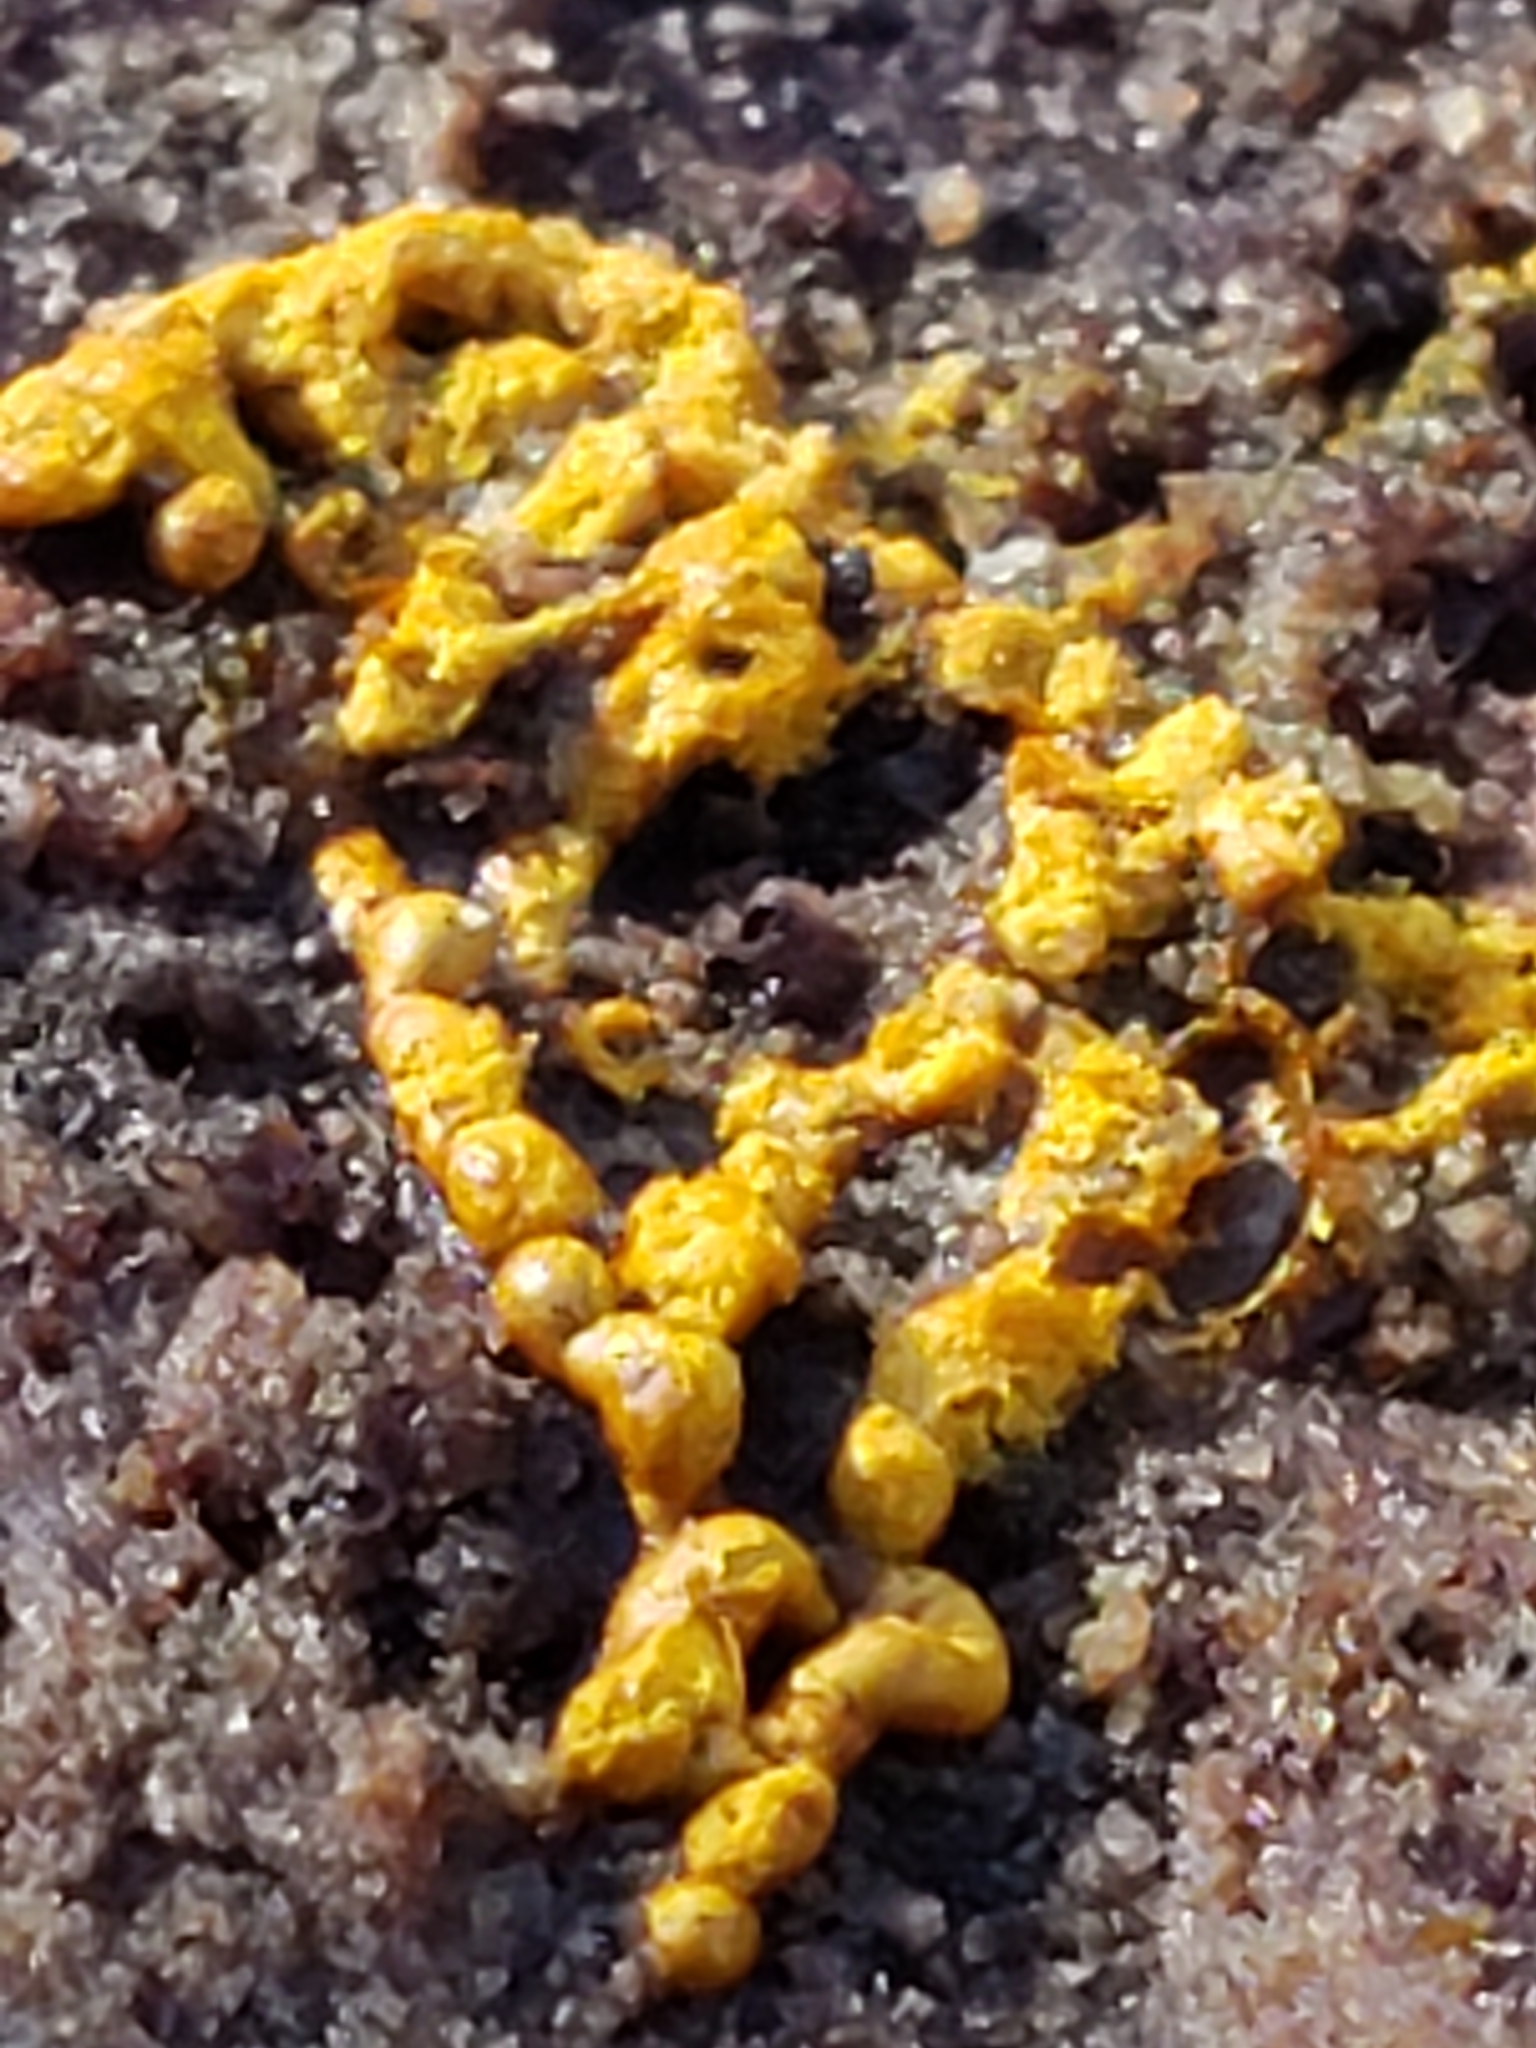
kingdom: Protozoa
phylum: Mycetozoa
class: Myxomycetes
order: Trichiales
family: Arcyriaceae
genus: Hemitrichia
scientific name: Hemitrichia serpula
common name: Pretzel slime mold
